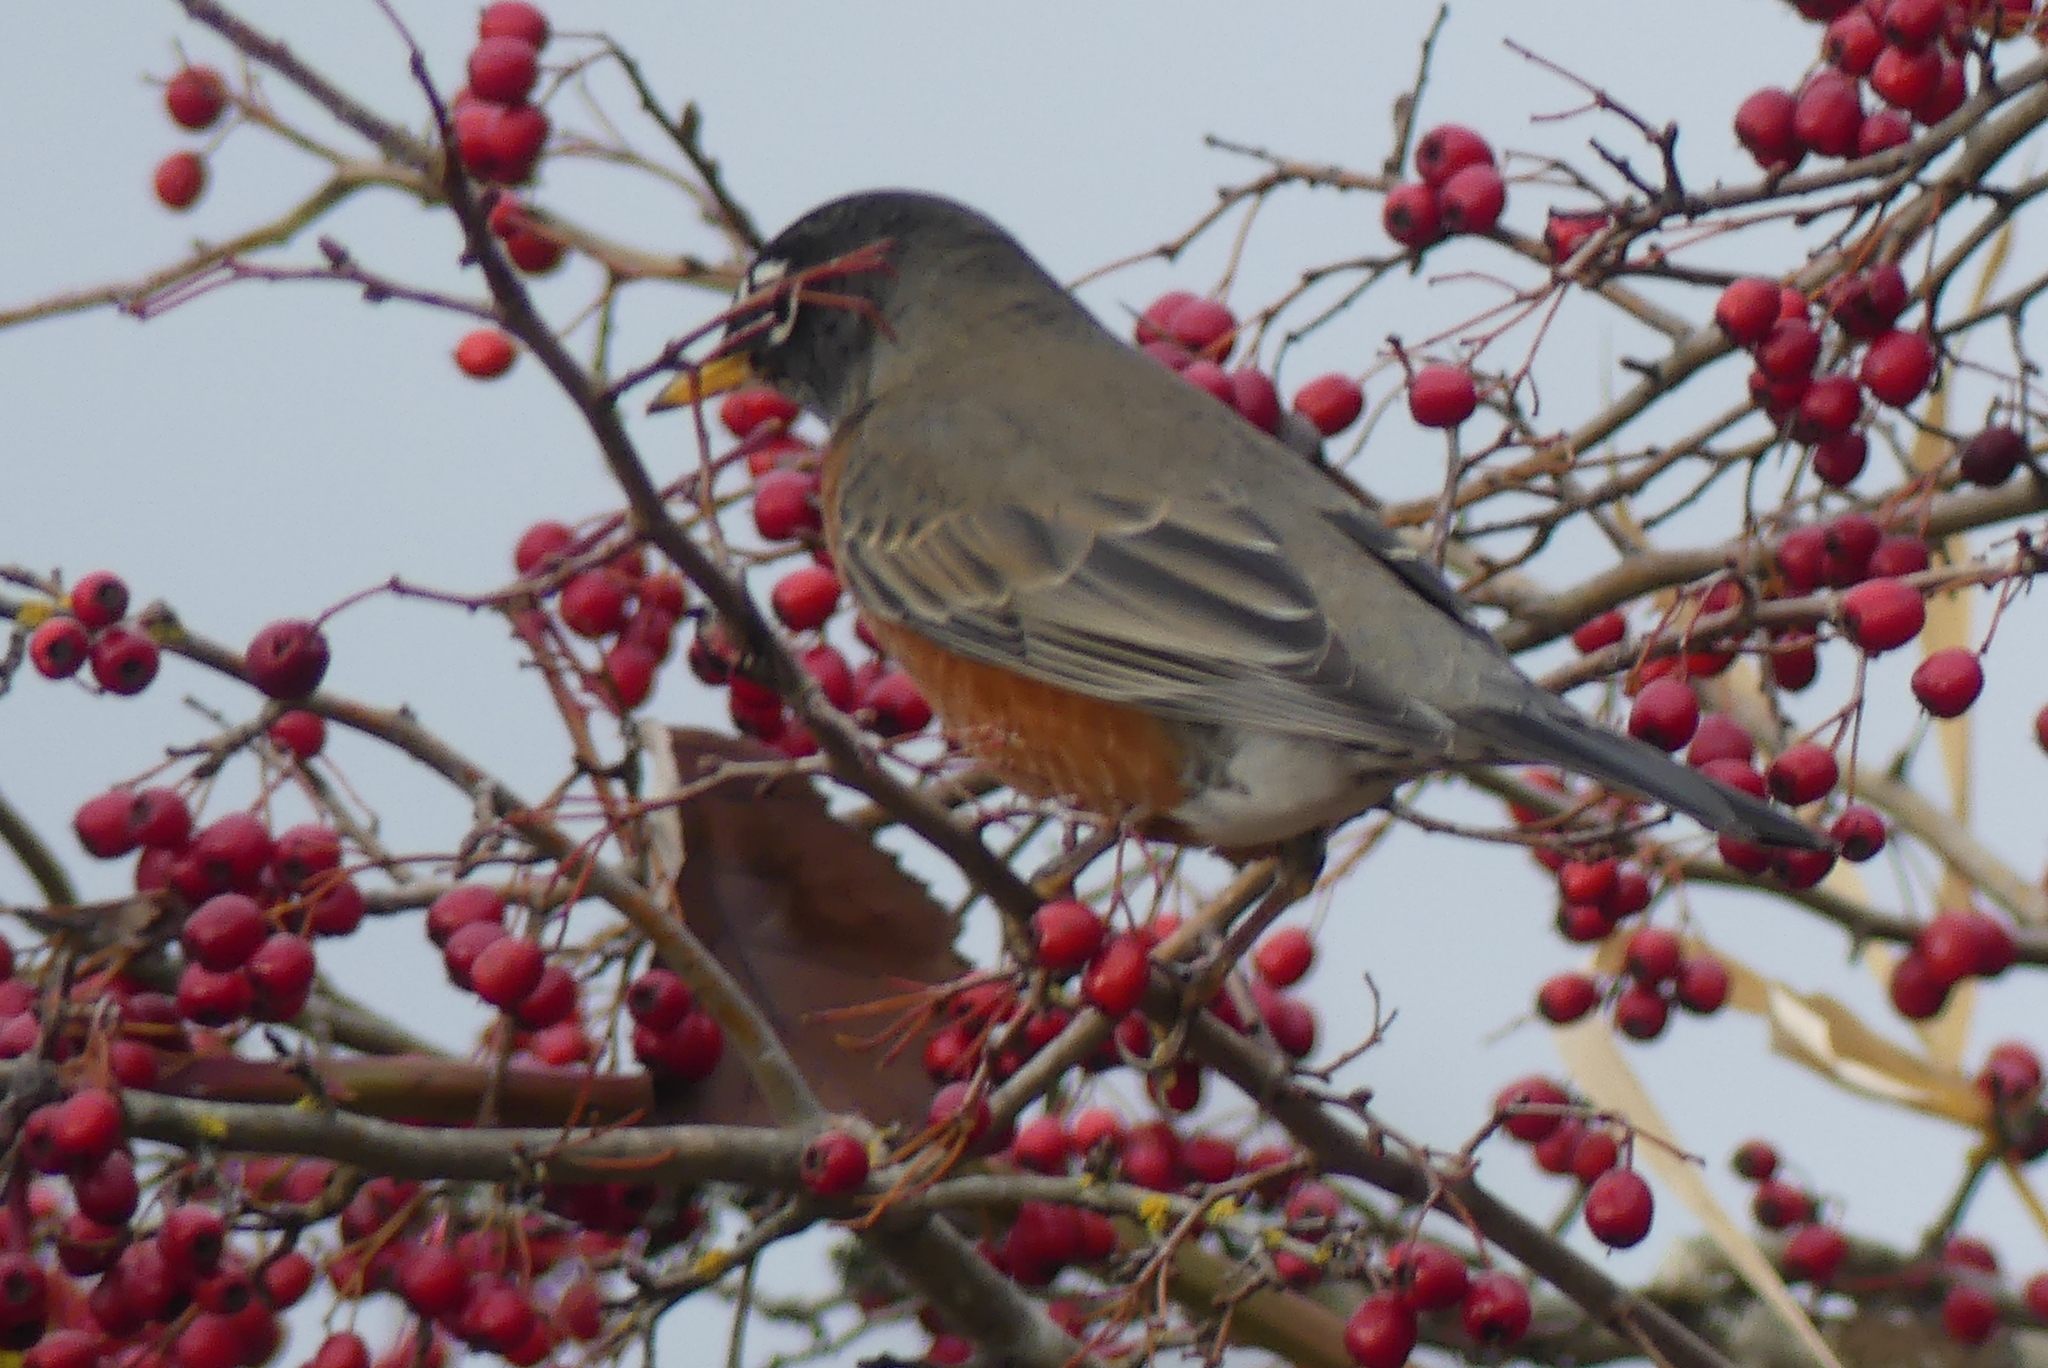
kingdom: Animalia
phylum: Chordata
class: Aves
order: Passeriformes
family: Turdidae
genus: Turdus
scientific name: Turdus migratorius
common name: American robin
